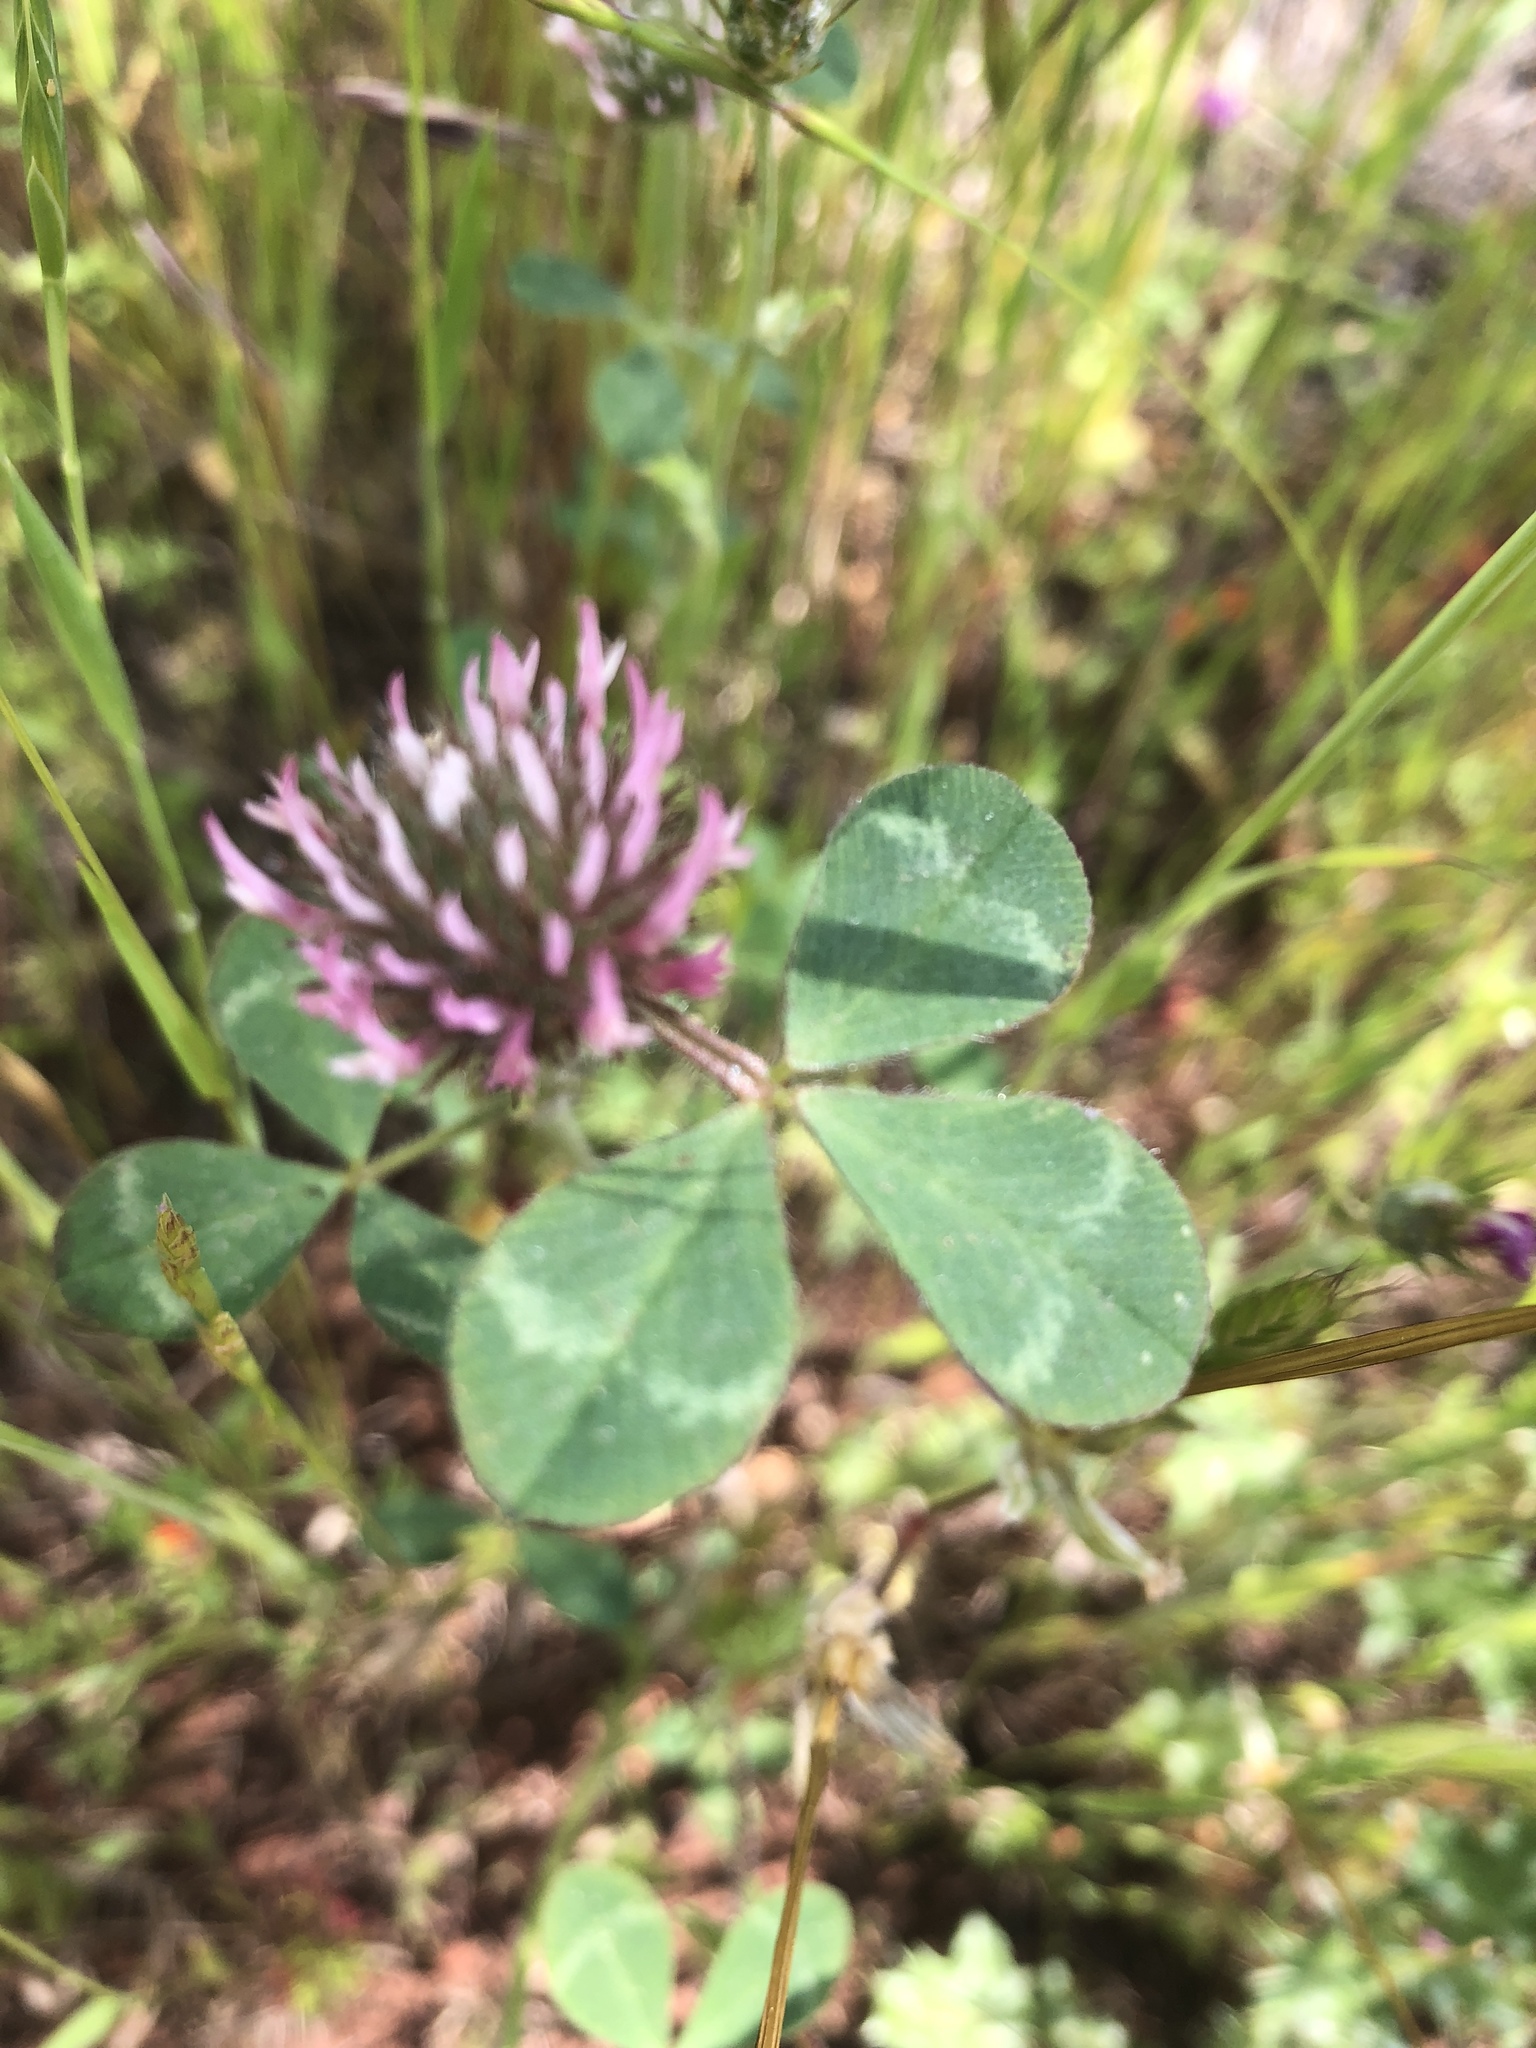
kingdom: Plantae
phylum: Tracheophyta
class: Magnoliopsida
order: Fabales
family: Fabaceae
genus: Trifolium
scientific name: Trifolium hirtum
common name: Rose clover
